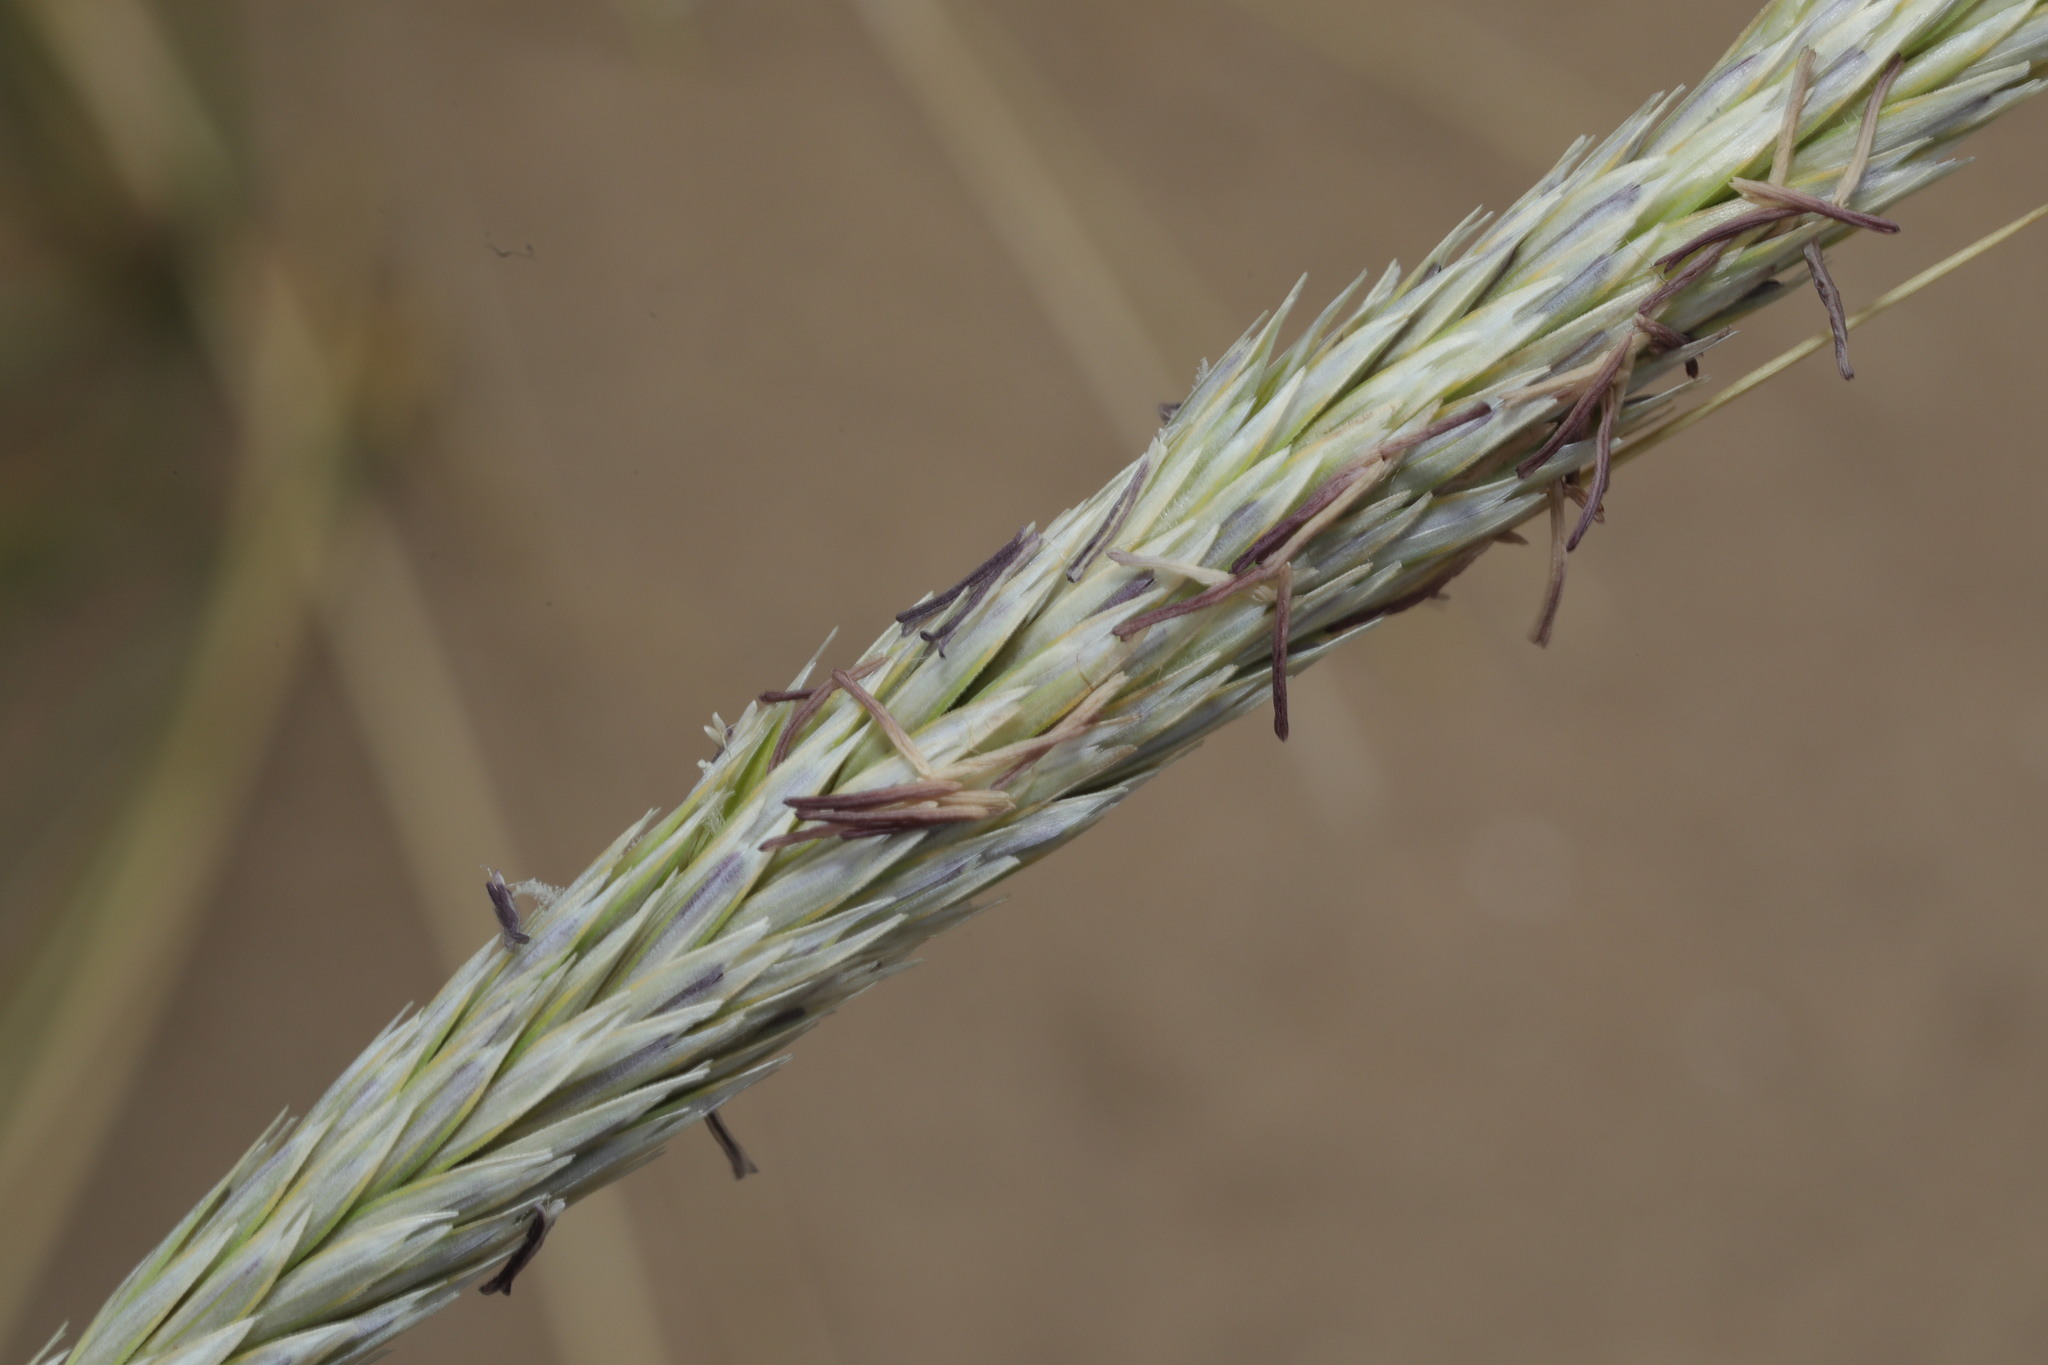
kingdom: Plantae
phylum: Tracheophyta
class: Liliopsida
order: Poales
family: Poaceae
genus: Calamagrostis
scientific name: Calamagrostis arenaria
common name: European beachgrass
